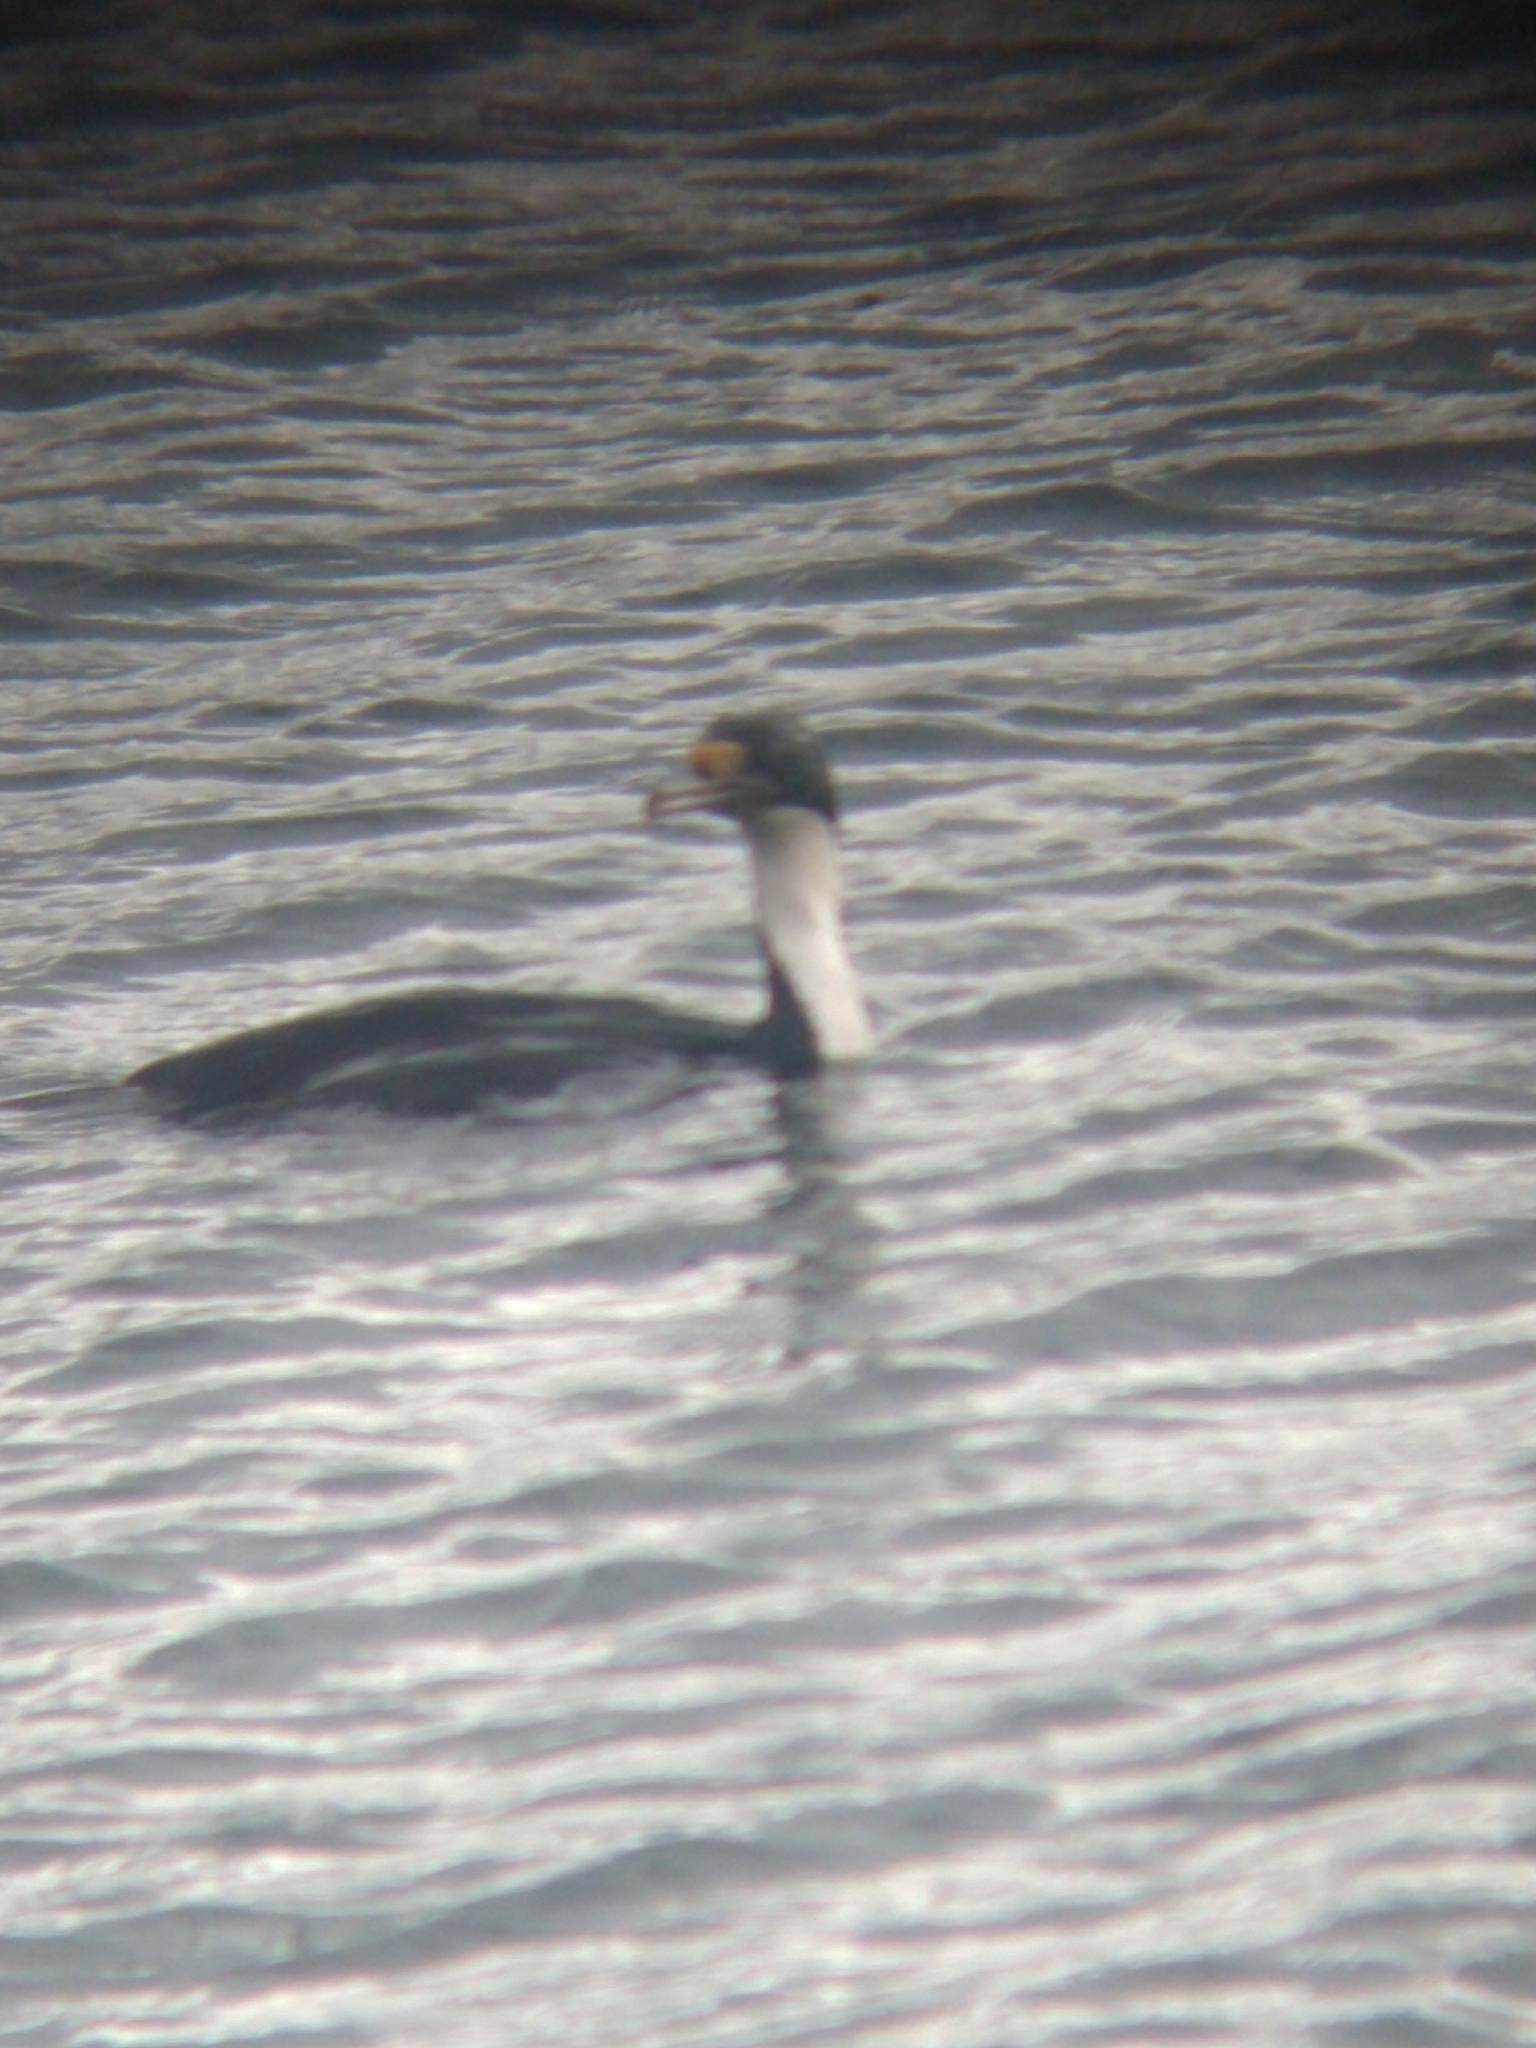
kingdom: Animalia
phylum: Chordata
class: Aves
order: Suliformes
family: Phalacrocoracidae
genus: Leucocarbo
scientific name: Leucocarbo atriceps
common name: Imperial shag
